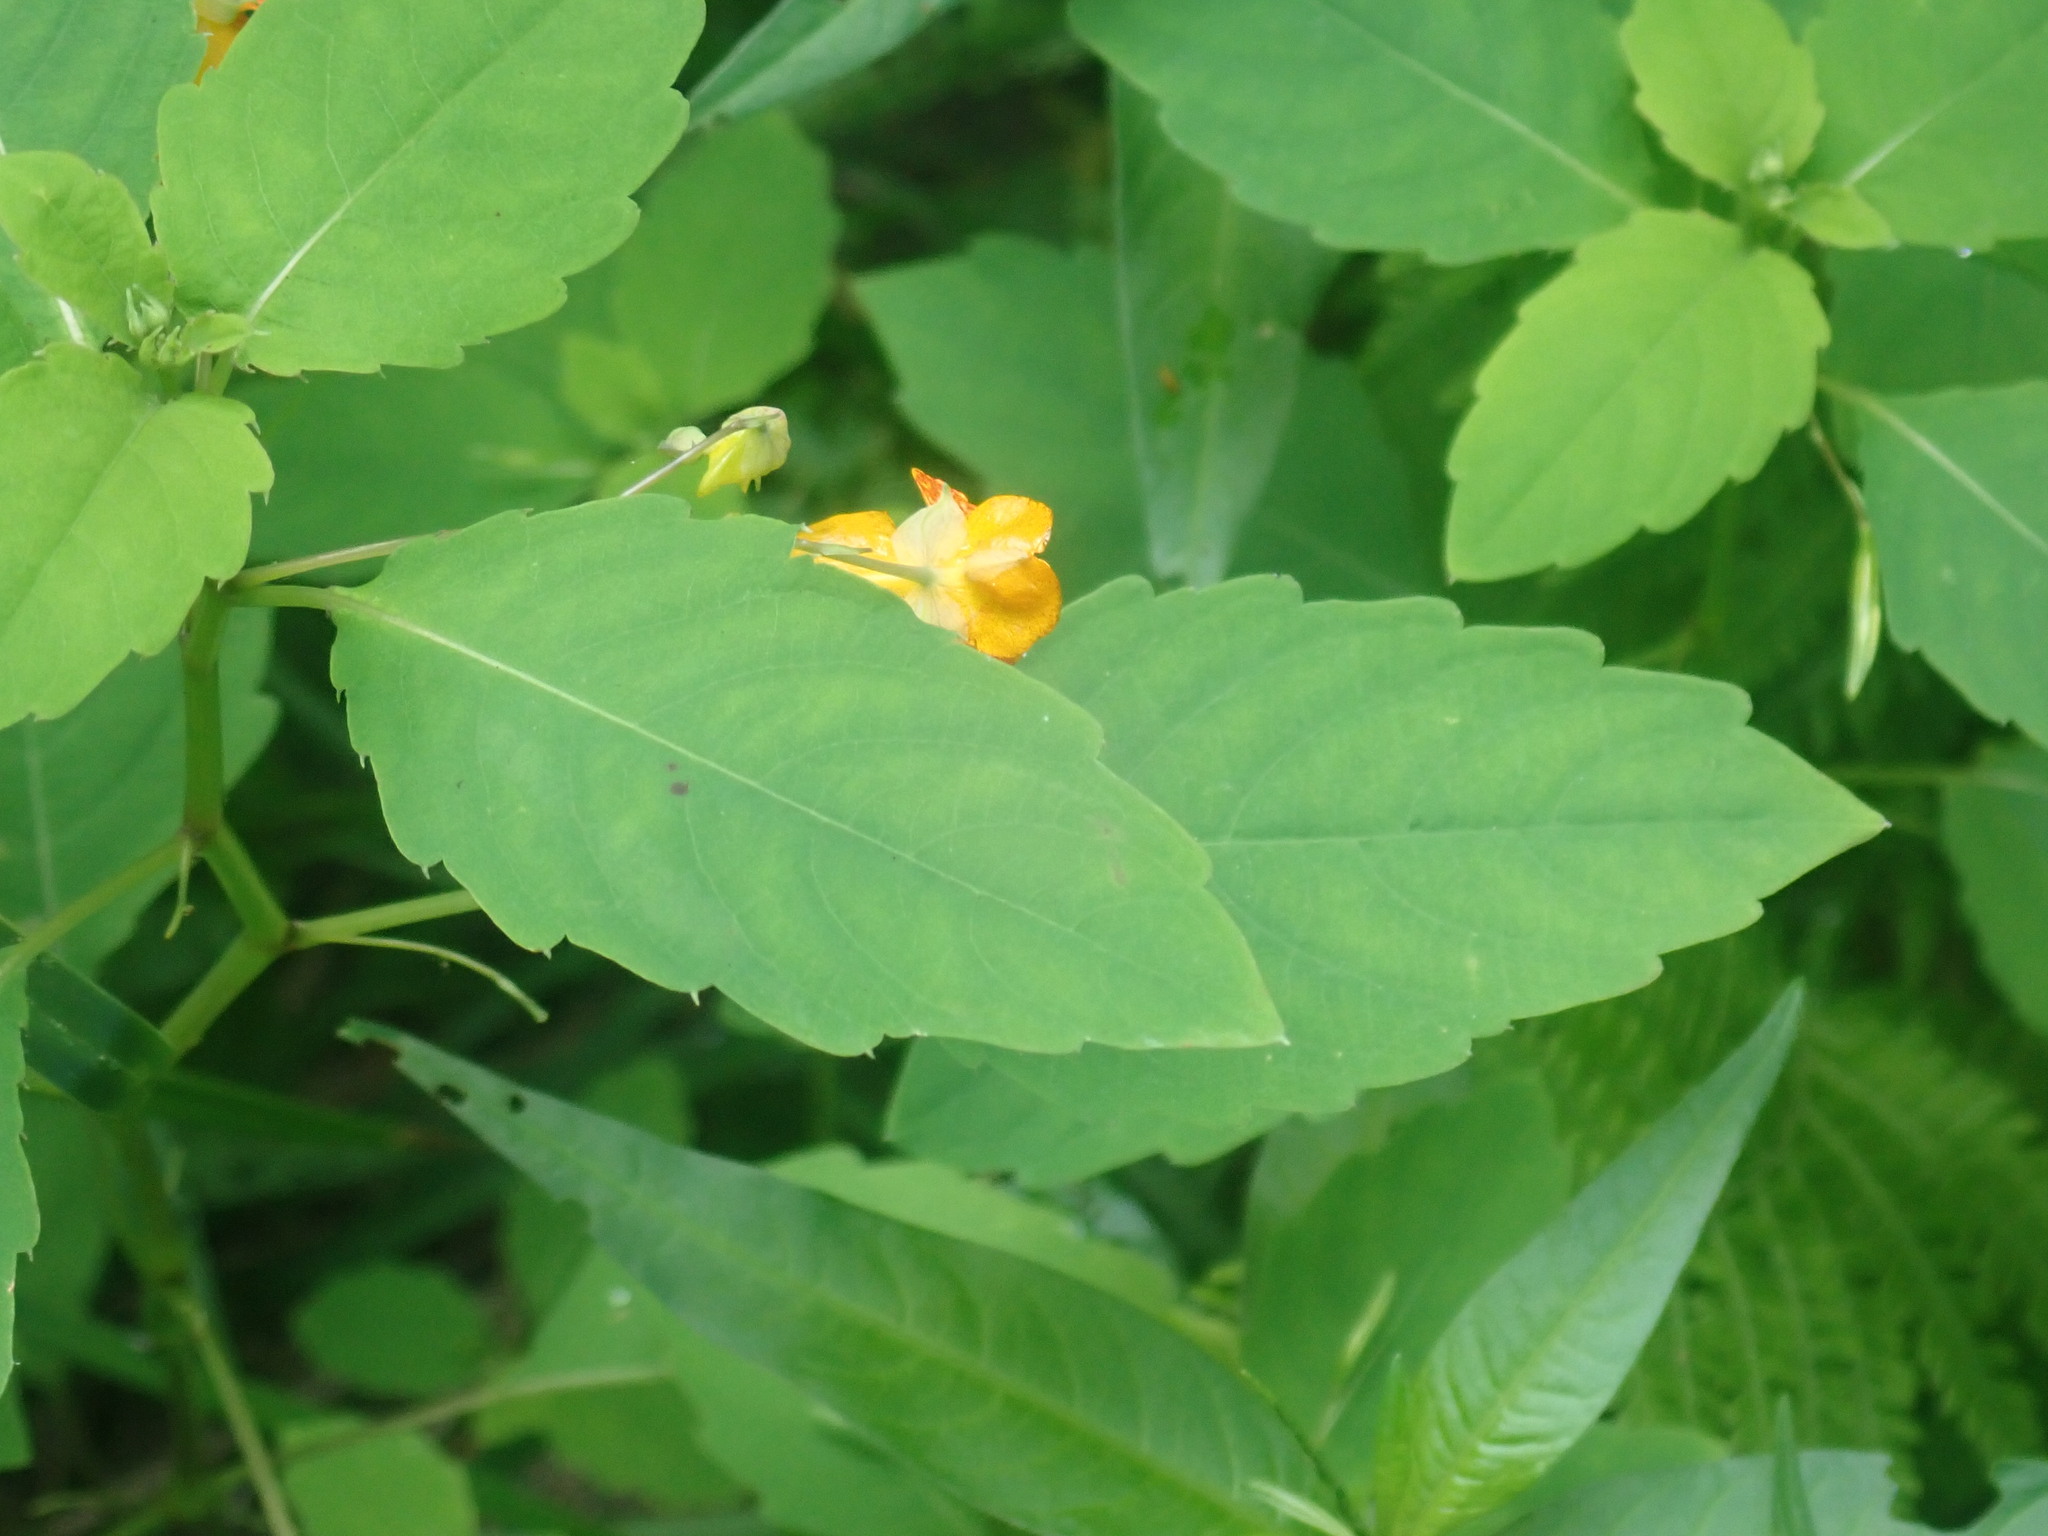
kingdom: Plantae
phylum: Tracheophyta
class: Magnoliopsida
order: Ericales
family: Balsaminaceae
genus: Impatiens
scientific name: Impatiens capensis
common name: Orange balsam
